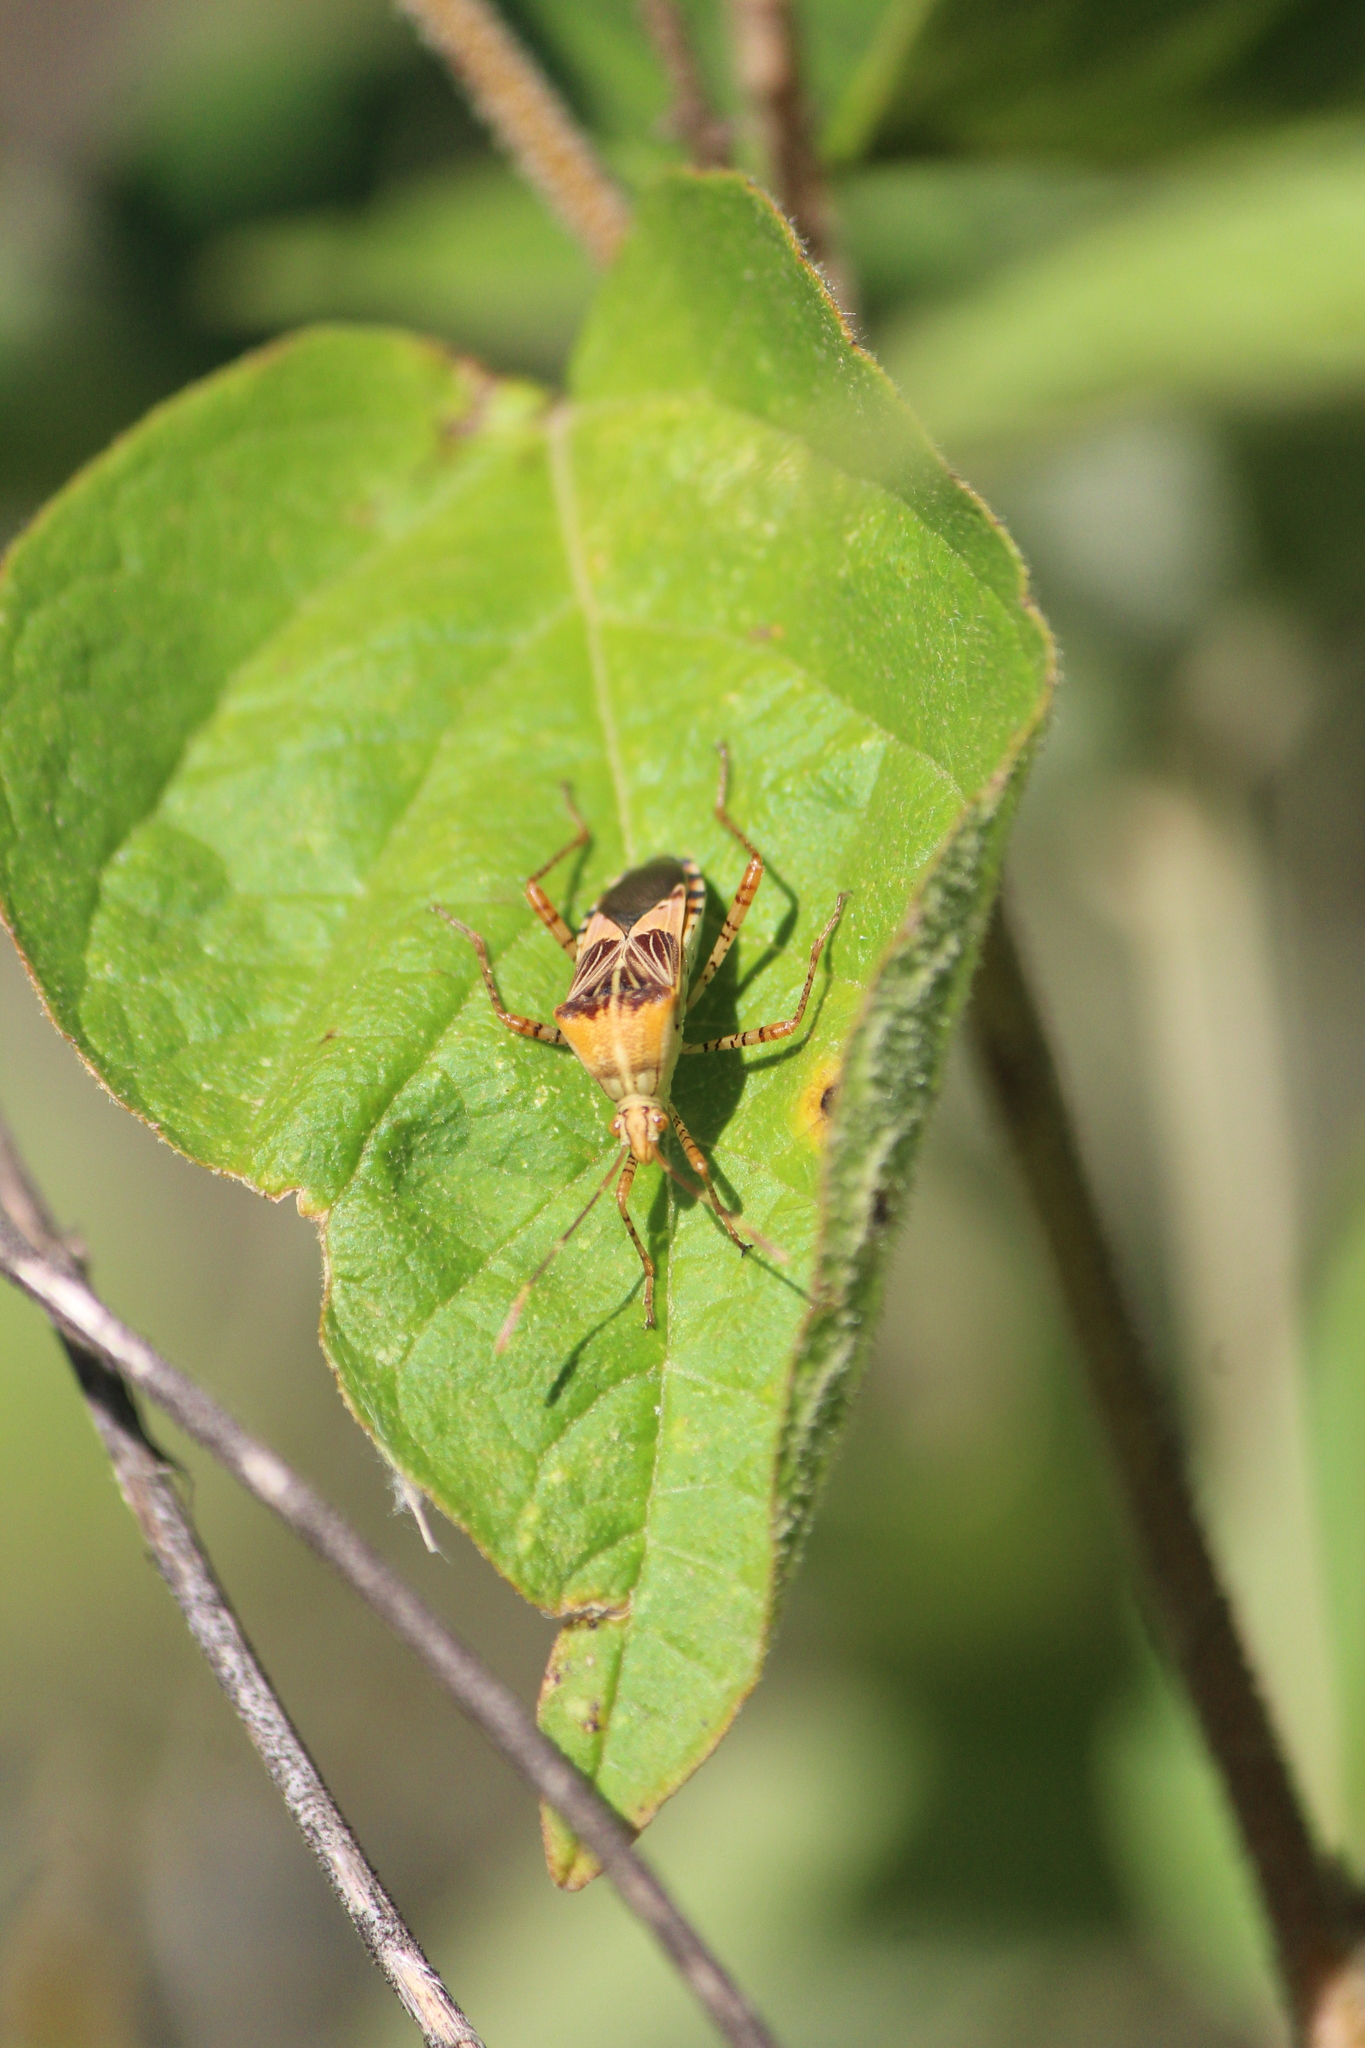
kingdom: Animalia
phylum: Arthropoda
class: Insecta
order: Hemiptera
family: Coreidae
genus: Hypselonotus
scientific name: Hypselonotus punctiventris
